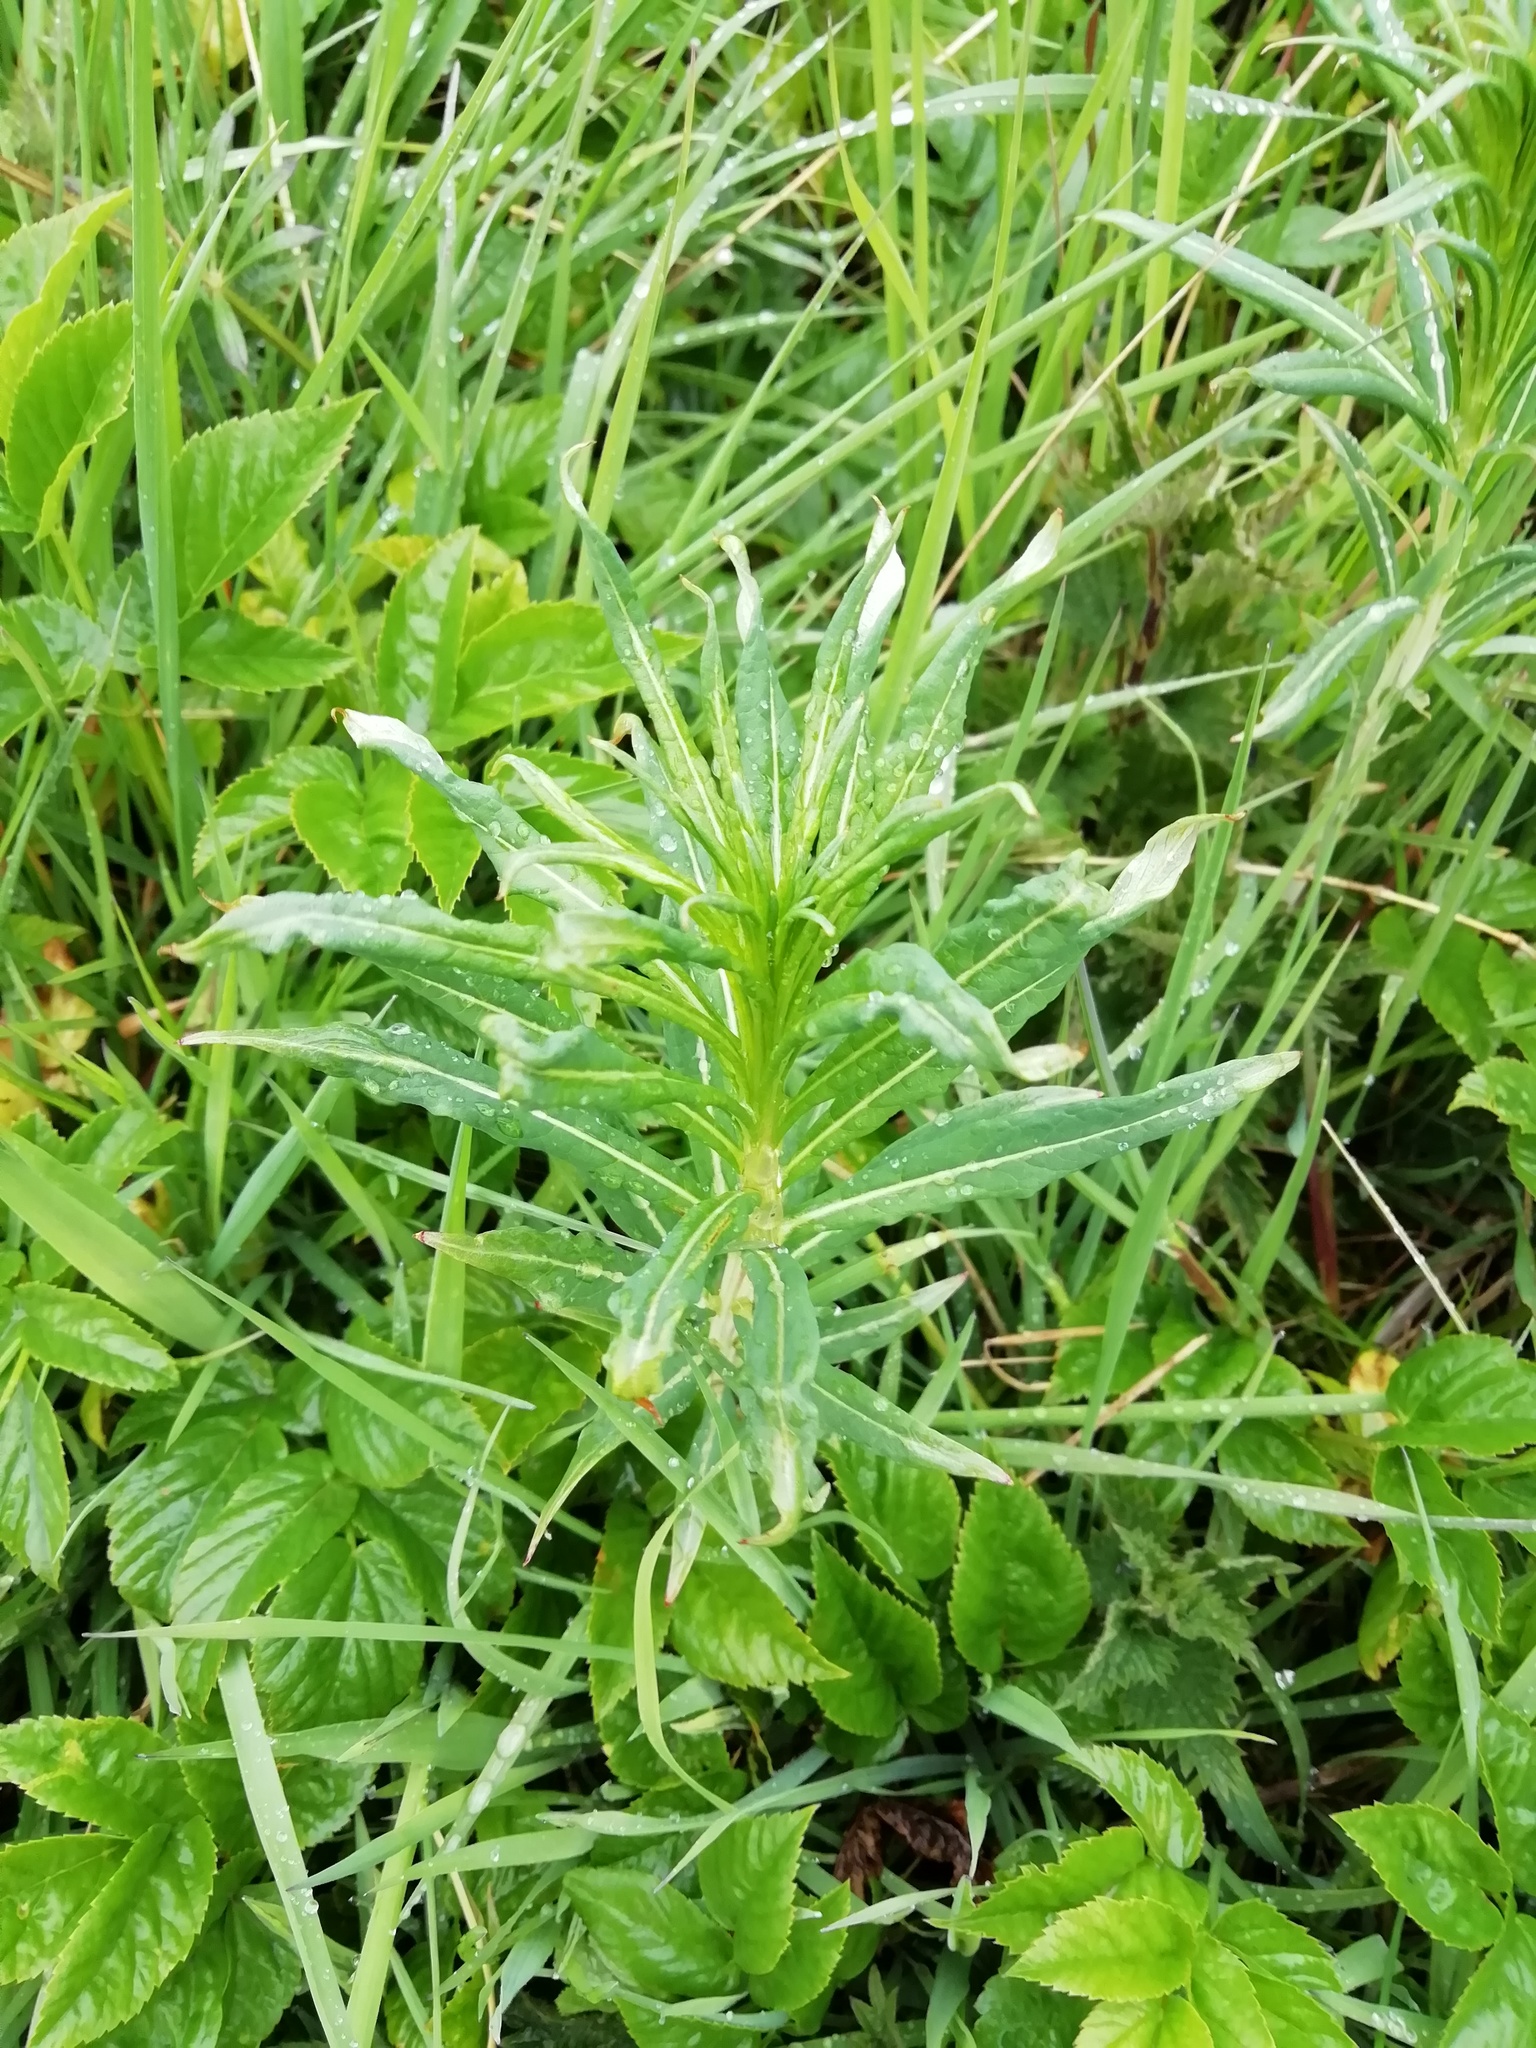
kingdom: Plantae
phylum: Tracheophyta
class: Magnoliopsida
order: Myrtales
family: Onagraceae
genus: Chamaenerion
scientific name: Chamaenerion angustifolium
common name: Fireweed
